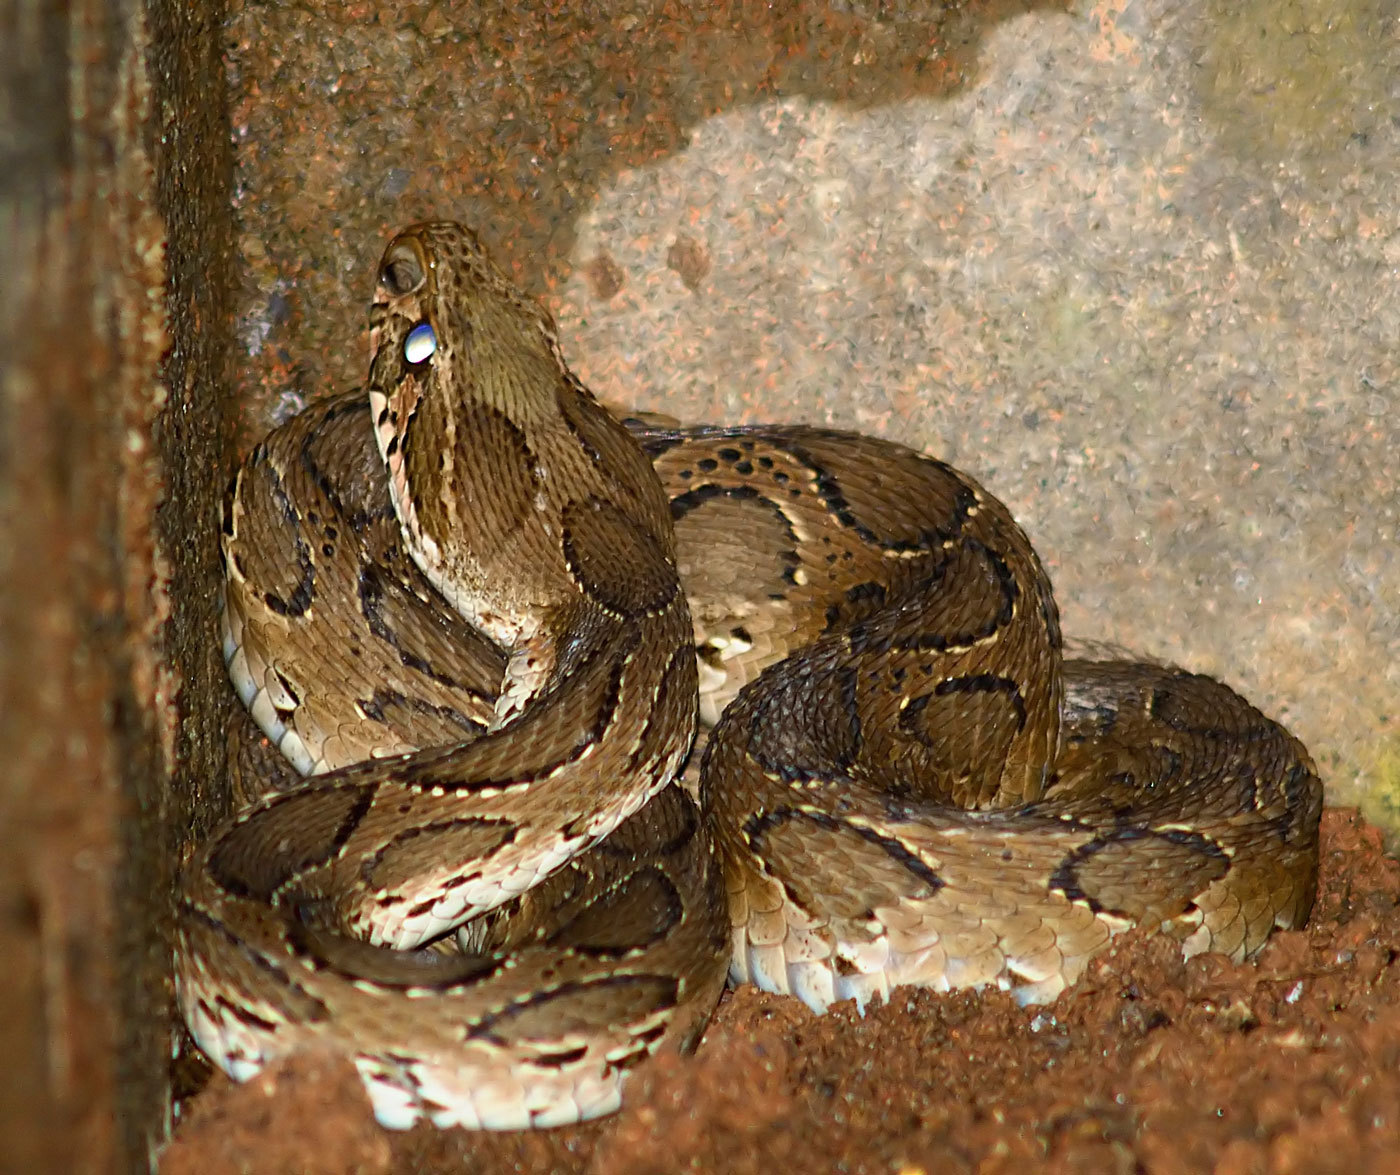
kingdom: Animalia
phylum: Chordata
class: Squamata
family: Viperidae
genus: Daboia
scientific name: Daboia russelii
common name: Western russel’s viper
